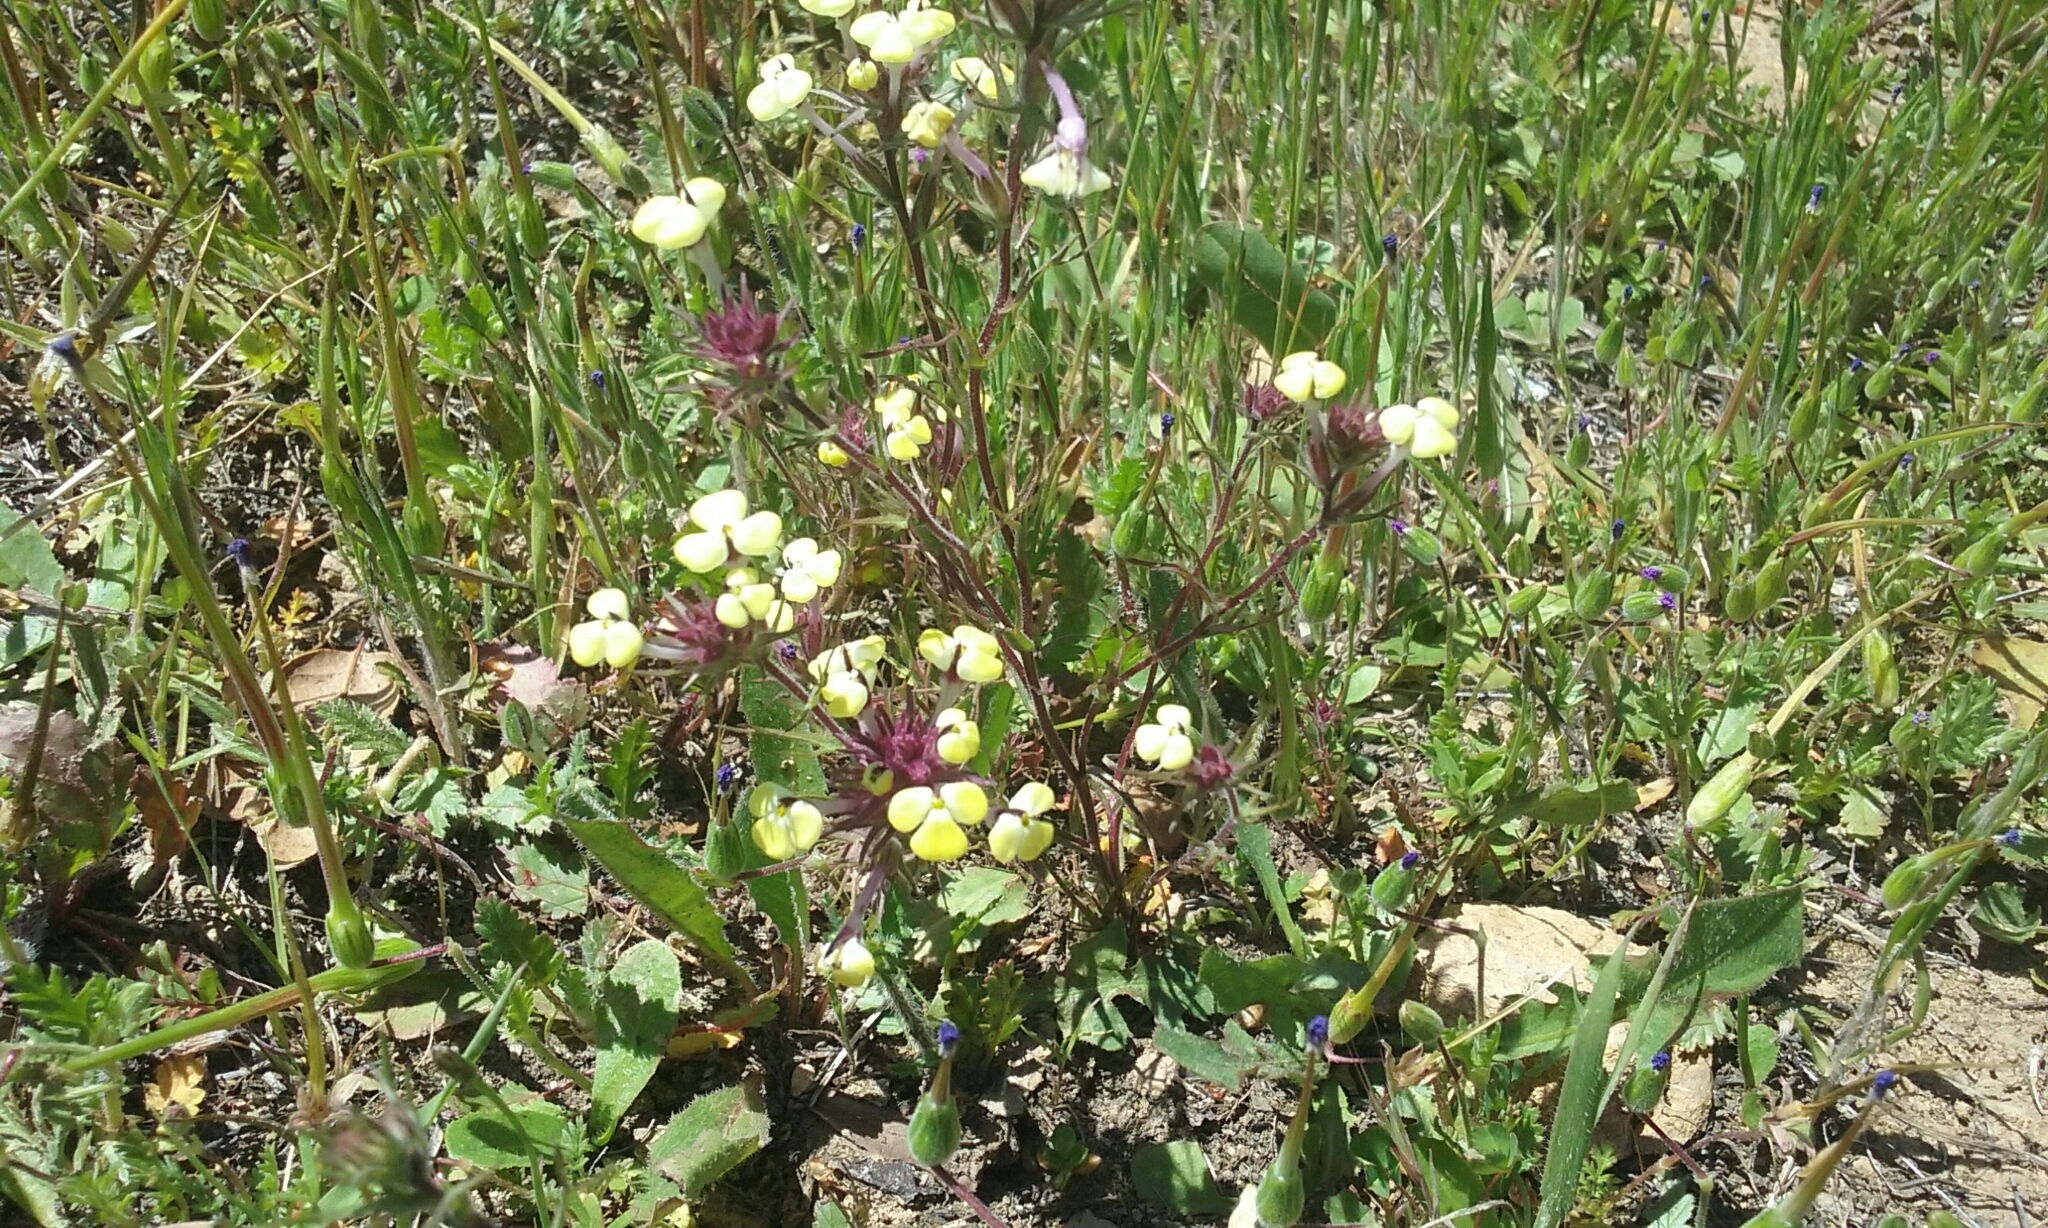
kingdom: Plantae
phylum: Tracheophyta
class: Magnoliopsida
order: Lamiales
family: Orobanchaceae
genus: Triphysaria
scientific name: Triphysaria eriantha
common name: Johnny-tuck
